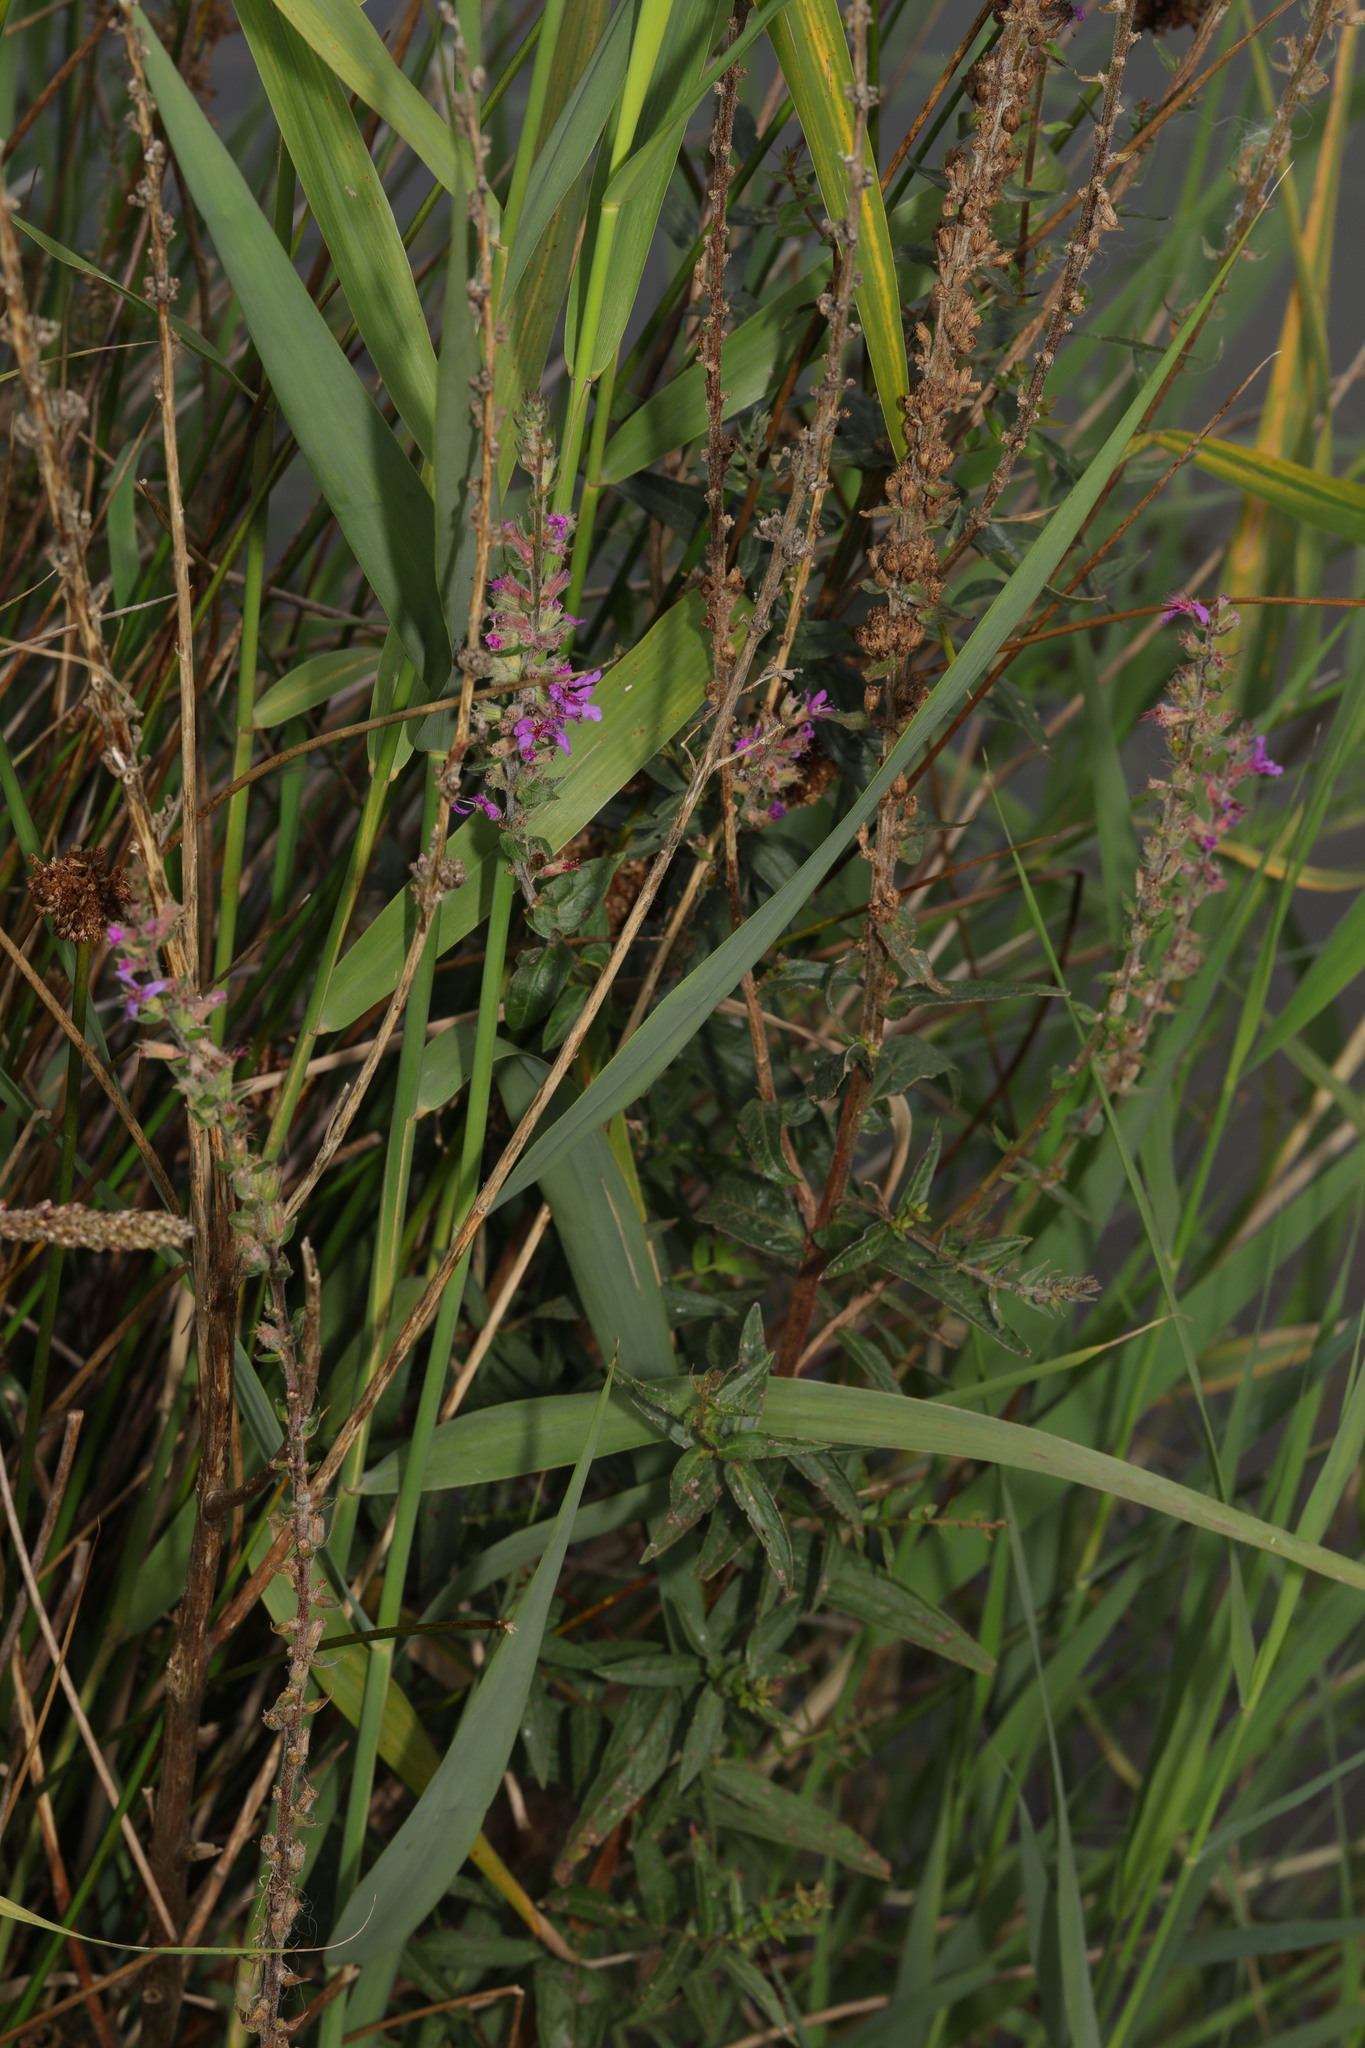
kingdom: Plantae
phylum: Tracheophyta
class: Magnoliopsida
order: Myrtales
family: Lythraceae
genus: Lythrum
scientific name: Lythrum salicaria
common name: Purple loosestrife
